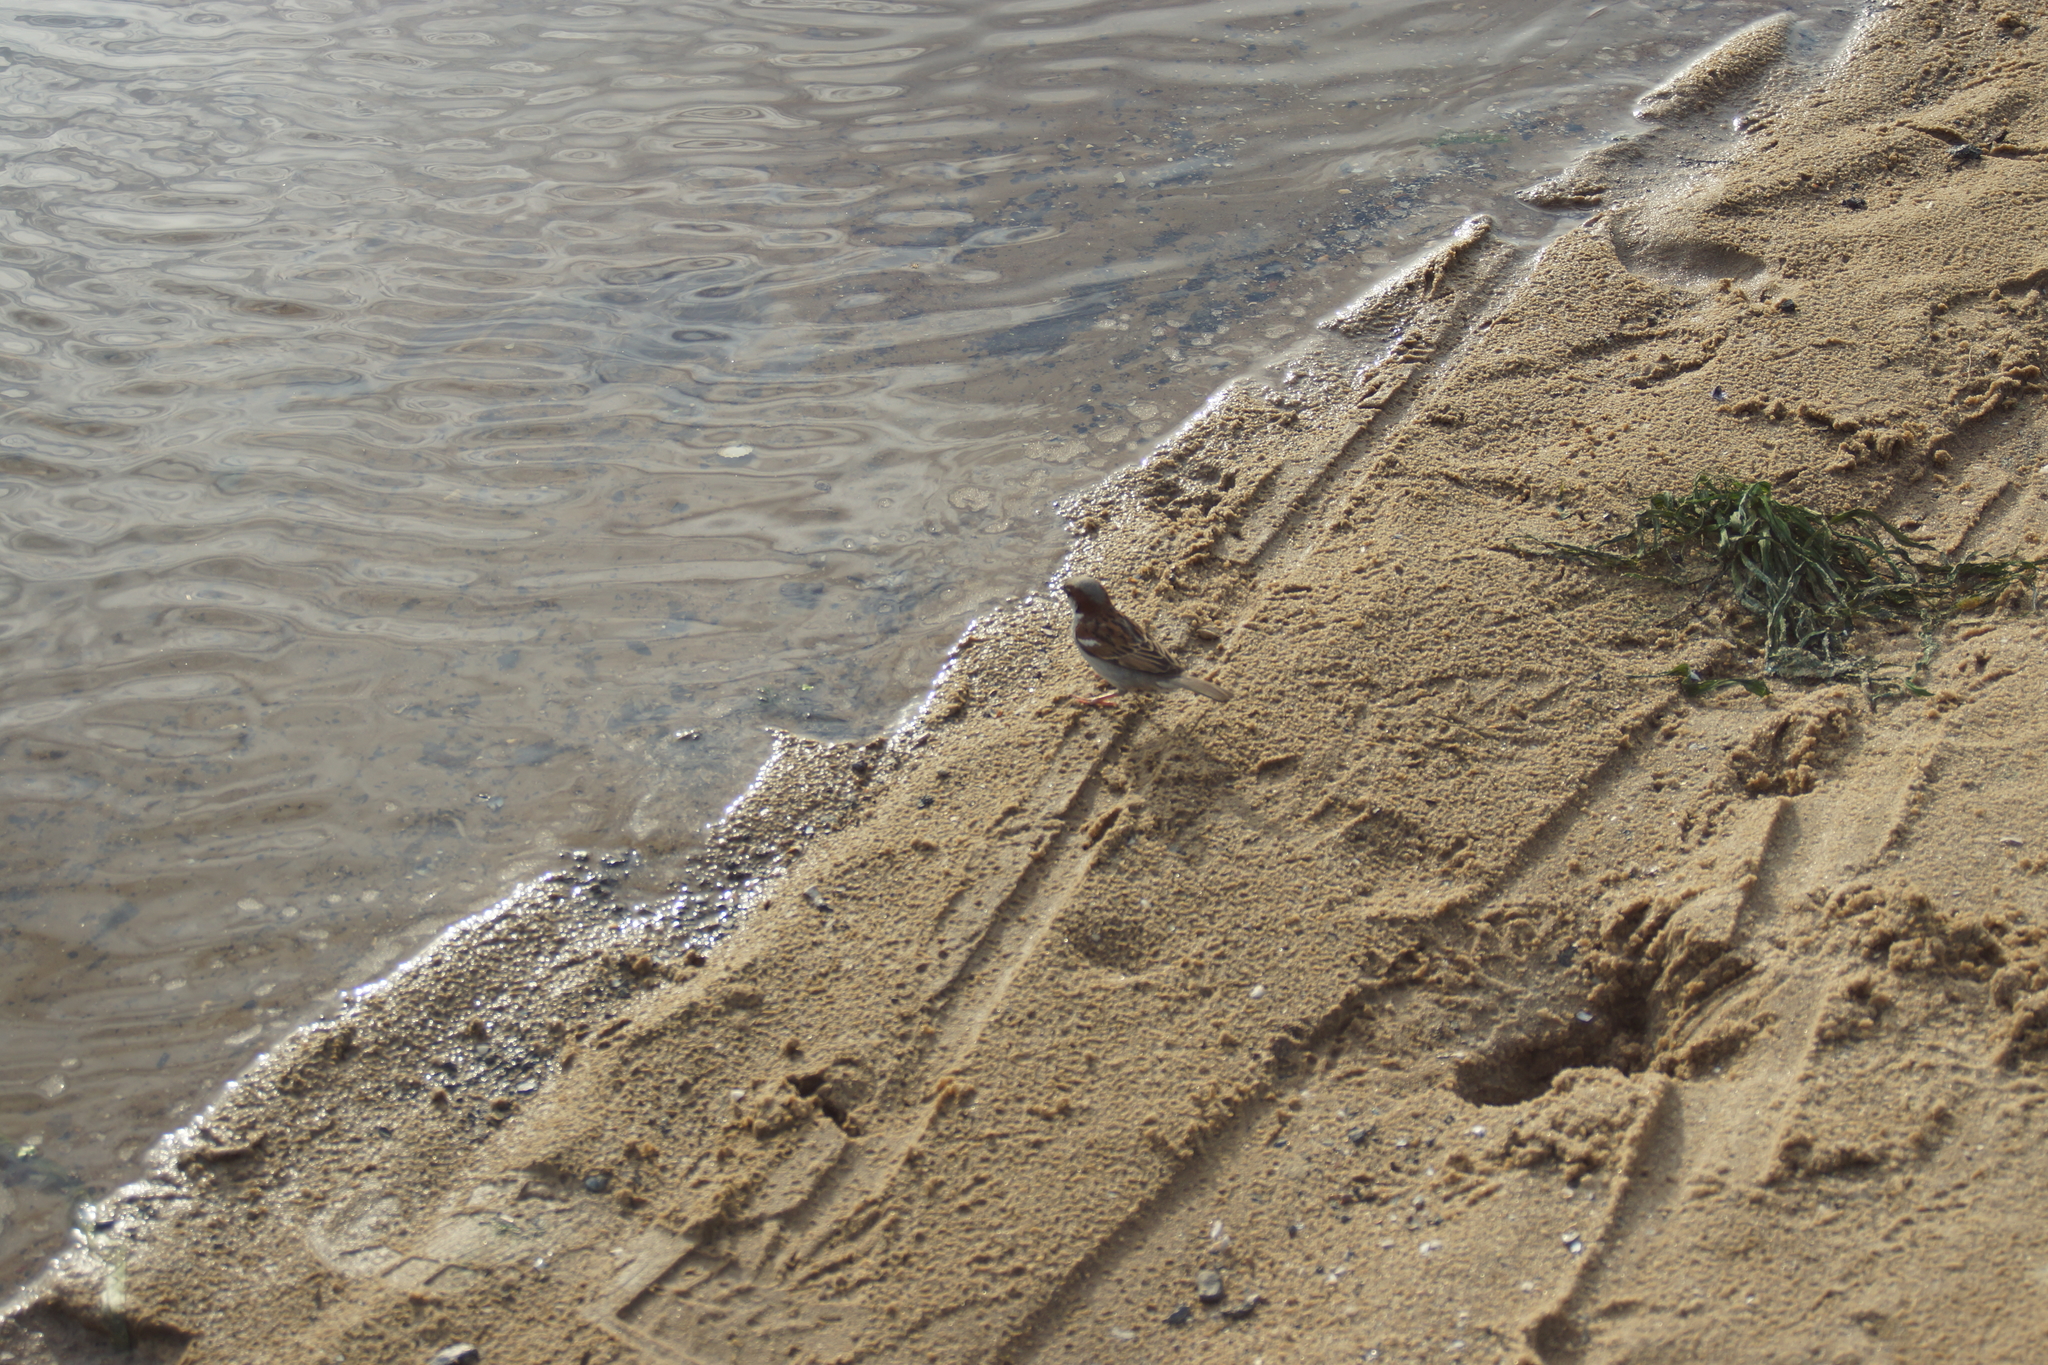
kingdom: Animalia
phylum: Chordata
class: Aves
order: Passeriformes
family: Passeridae
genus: Passer
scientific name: Passer domesticus
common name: House sparrow
